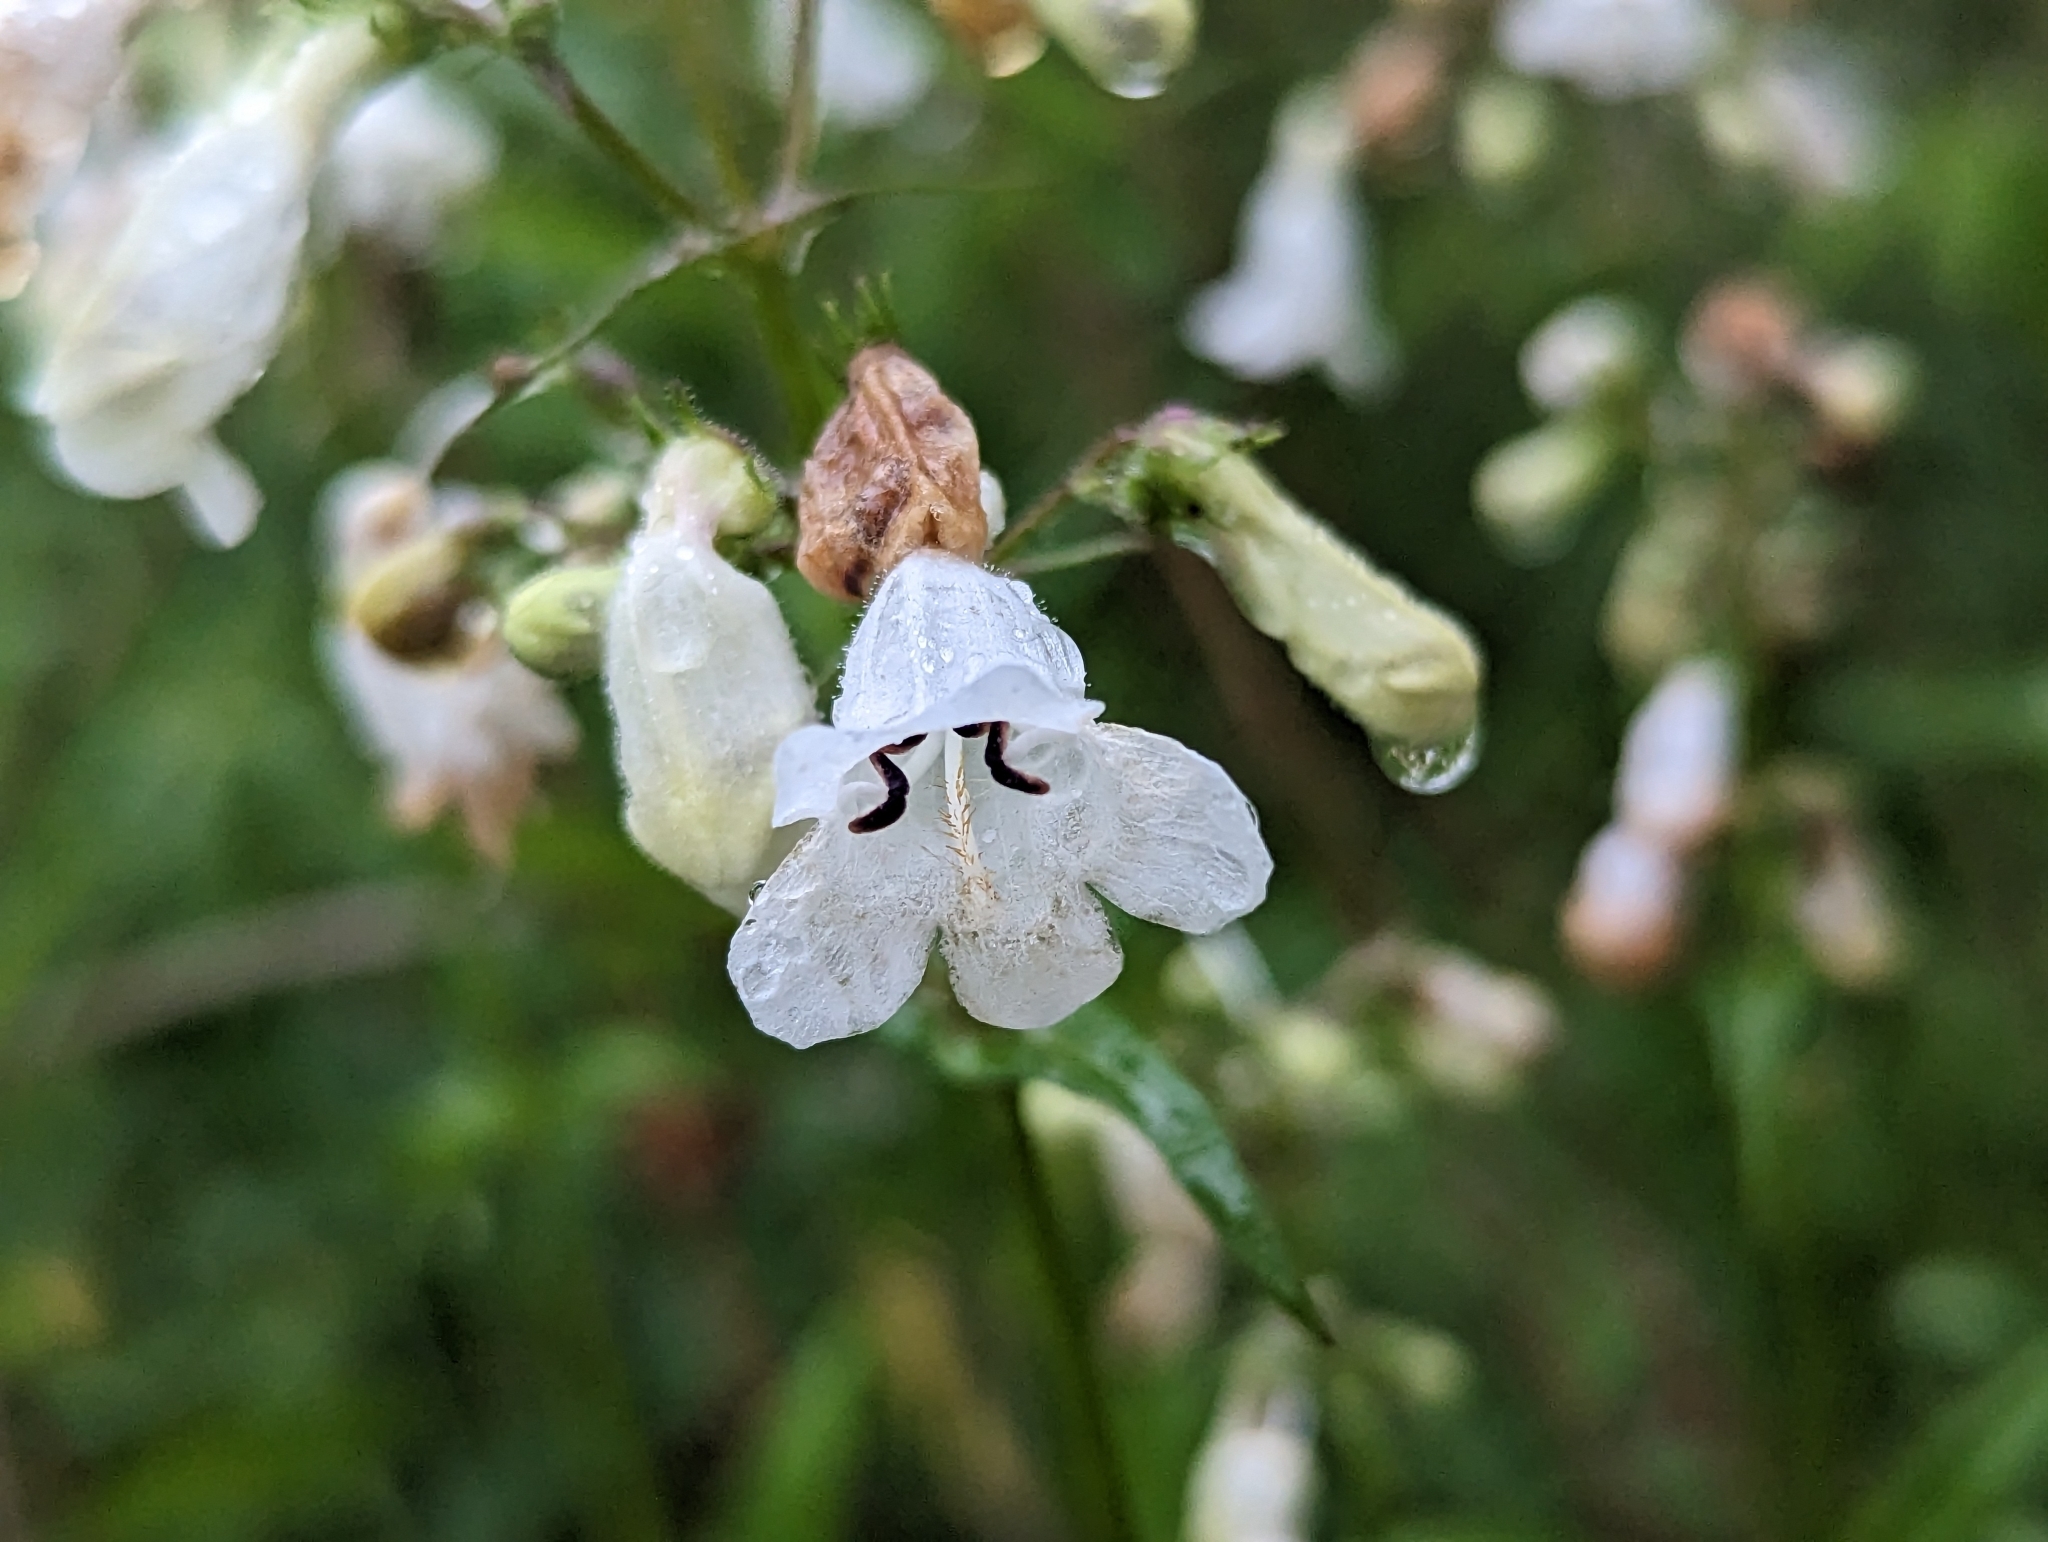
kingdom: Plantae
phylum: Tracheophyta
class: Magnoliopsida
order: Lamiales
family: Plantaginaceae
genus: Penstemon
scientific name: Penstemon digitalis
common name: Foxglove beardtongue
